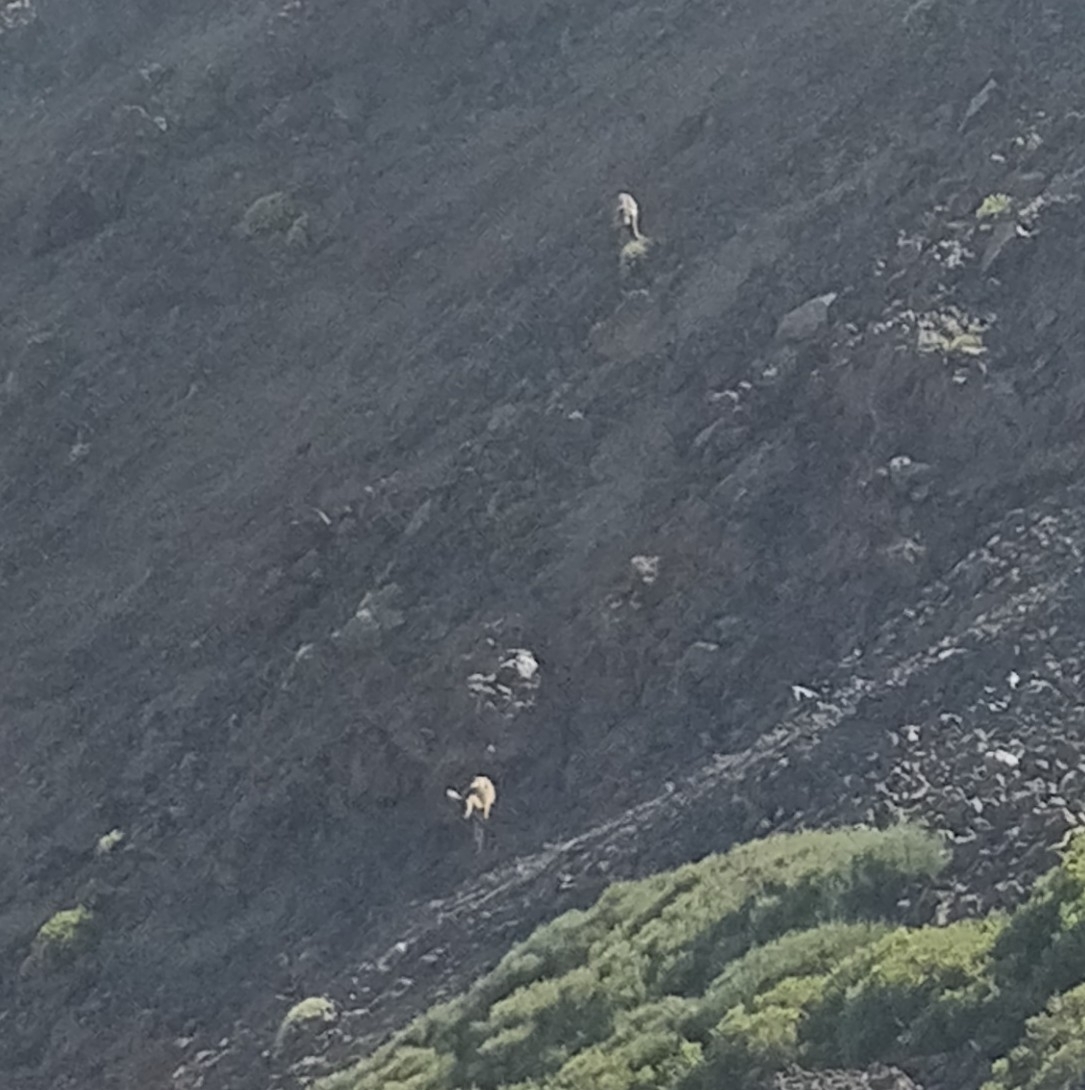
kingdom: Animalia
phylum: Chordata
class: Mammalia
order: Artiodactyla
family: Bovidae
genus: Ovis
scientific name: Ovis aries
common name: Domestic sheep
